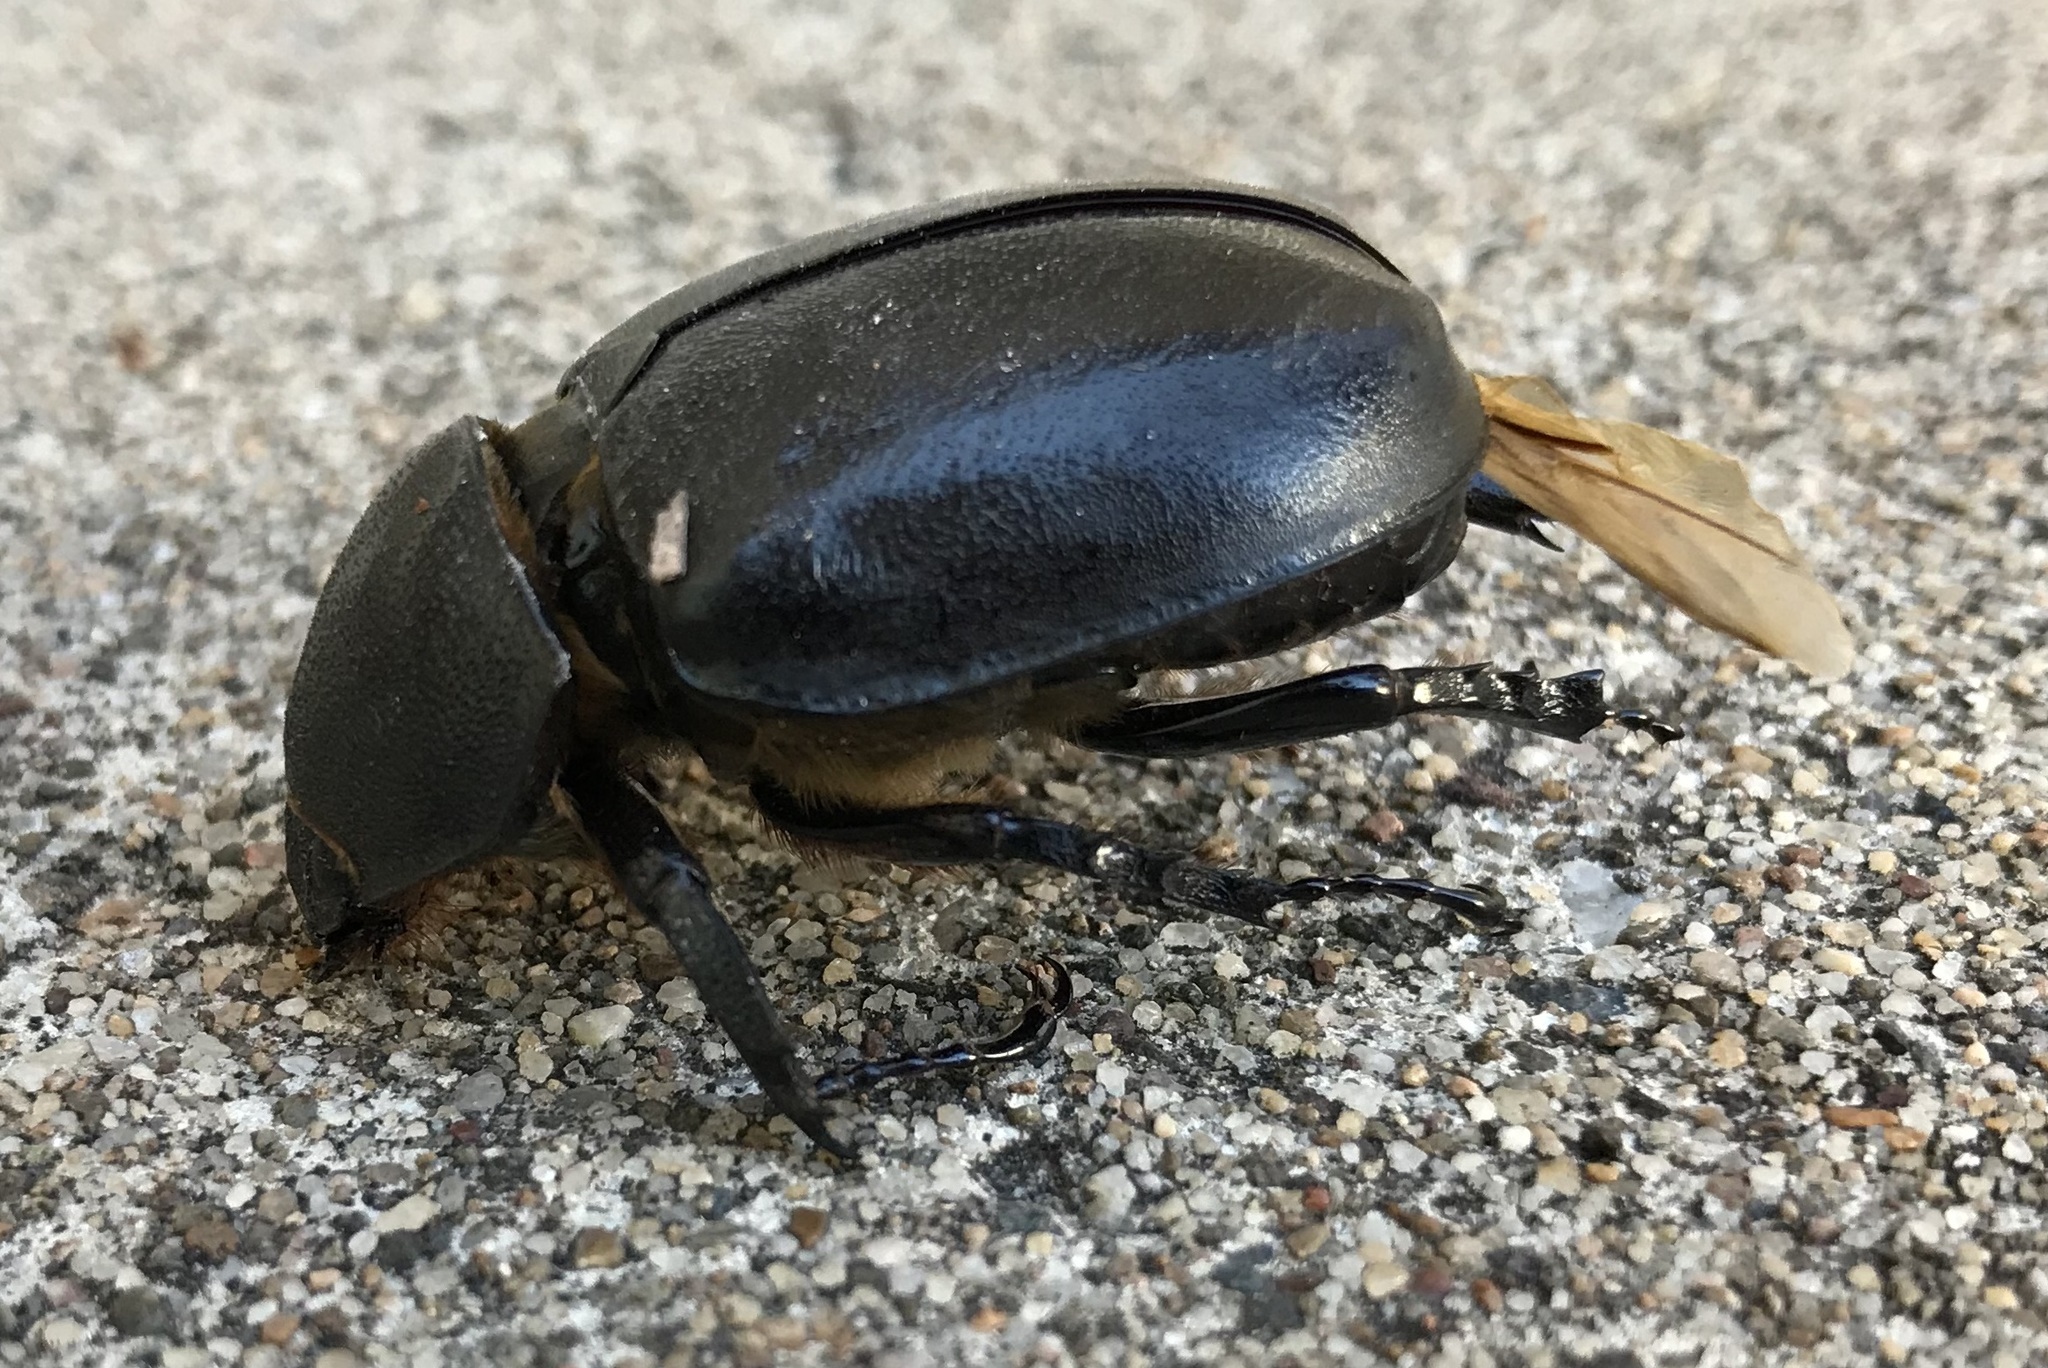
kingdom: Animalia
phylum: Arthropoda
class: Insecta
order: Coleoptera
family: Scarabaeidae
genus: Xylotrupes
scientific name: Xylotrupes australicus
